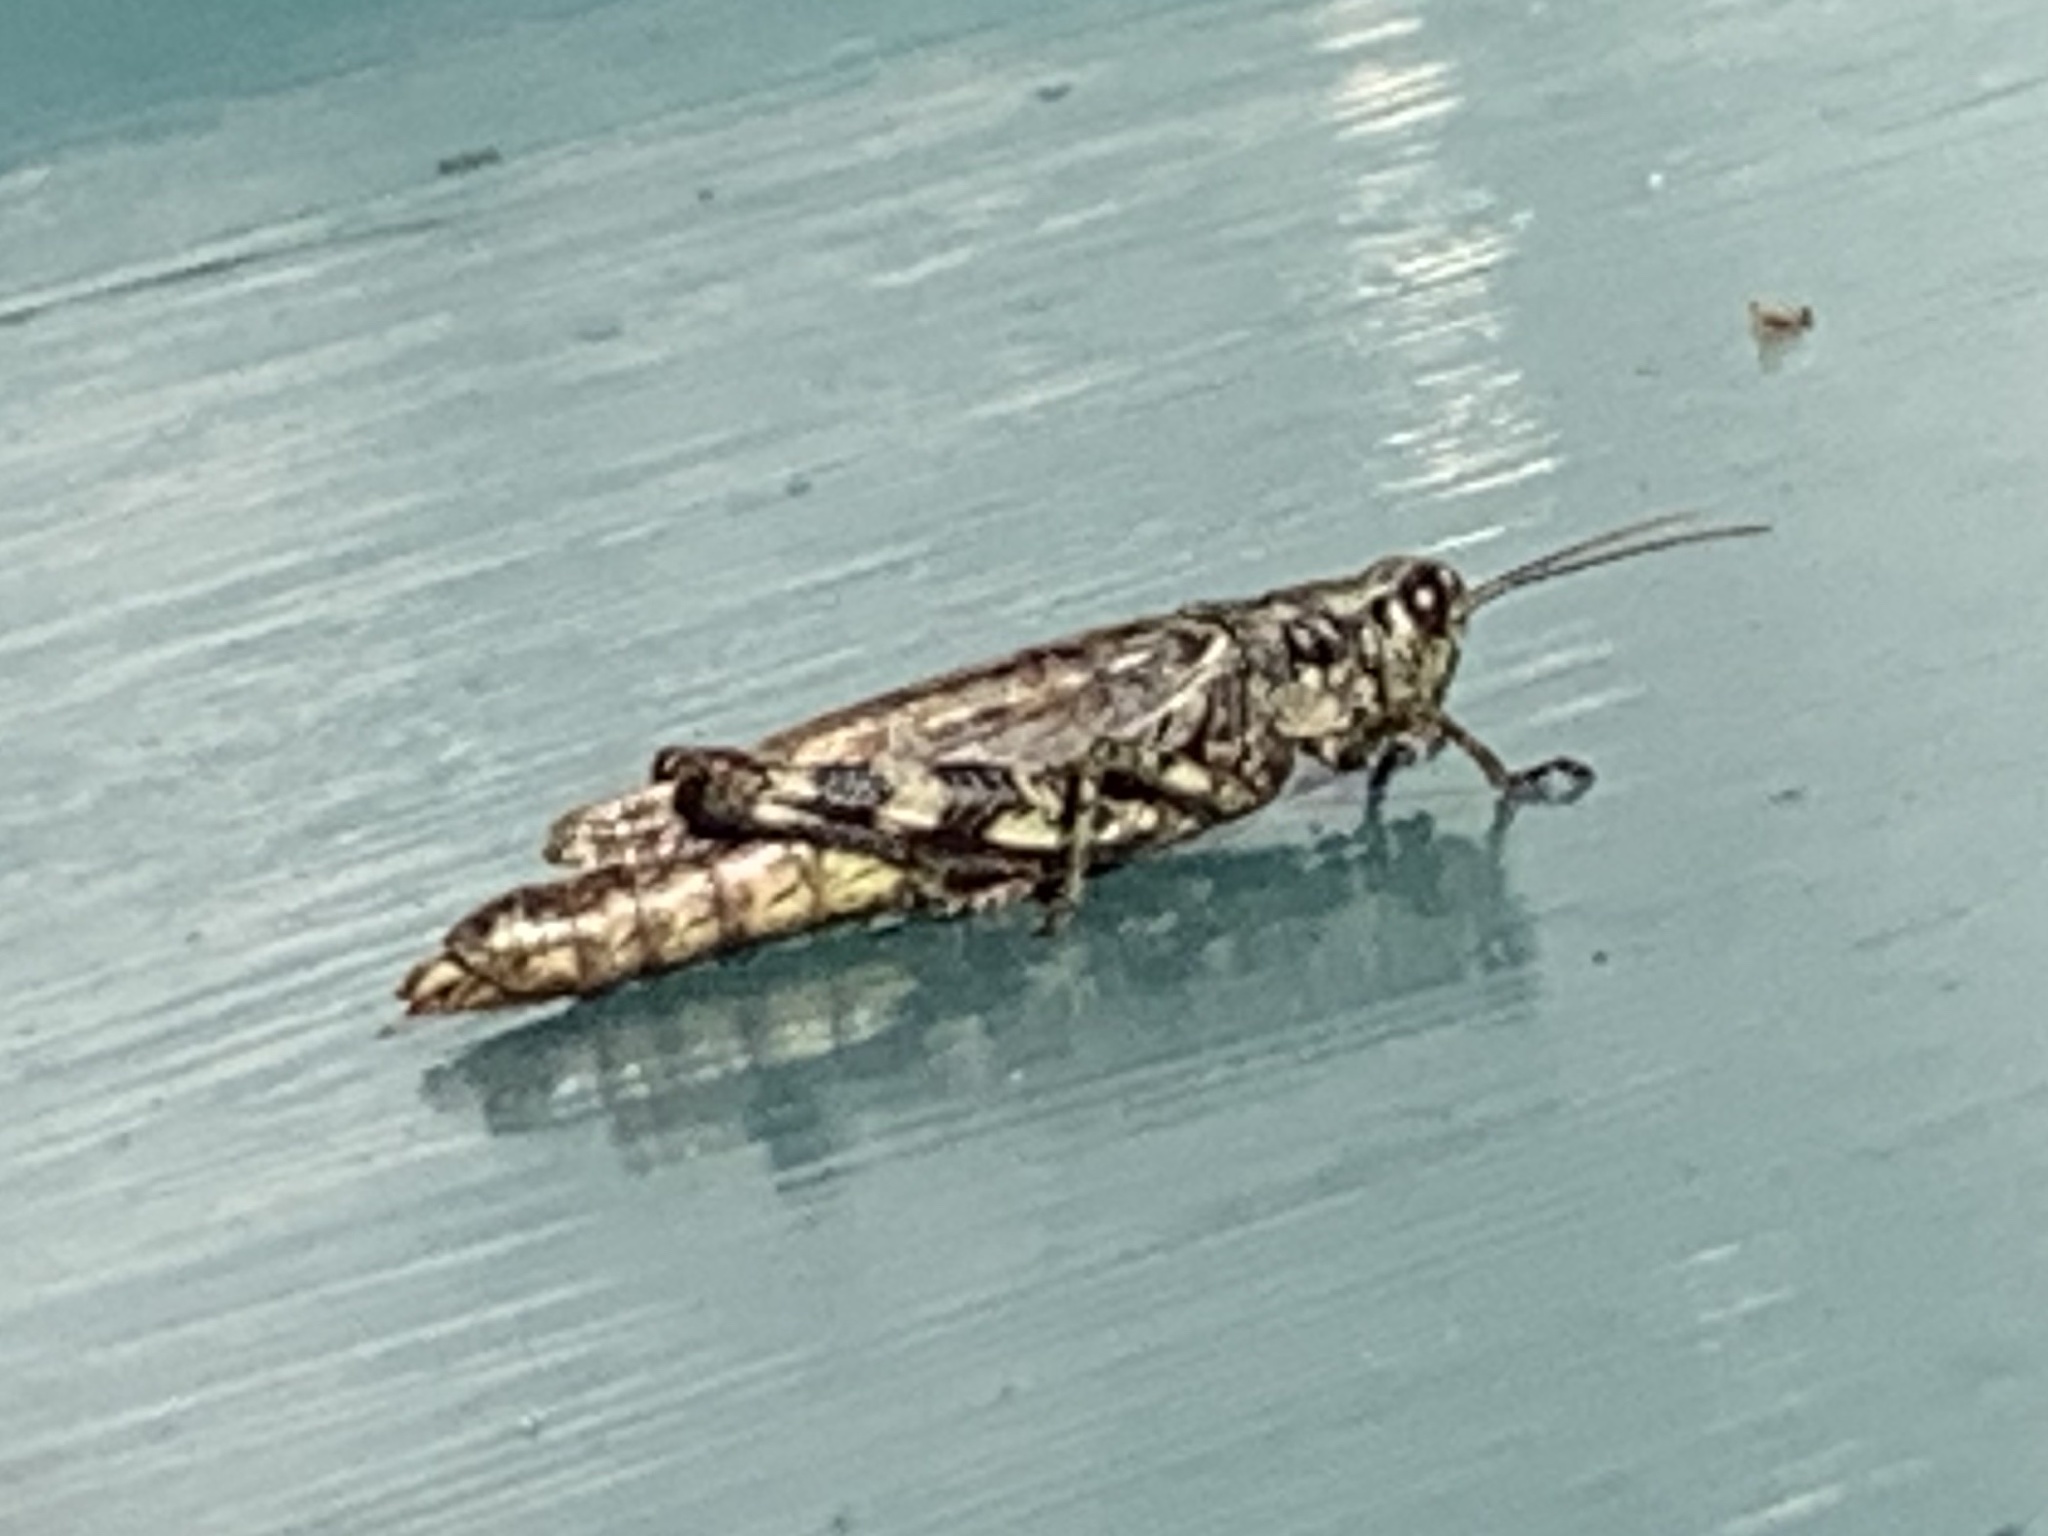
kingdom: Animalia
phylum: Arthropoda
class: Insecta
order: Orthoptera
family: Acrididae
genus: Melanoplus
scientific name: Melanoplus punctulatus
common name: Pine-tree spur-throat grasshopper
